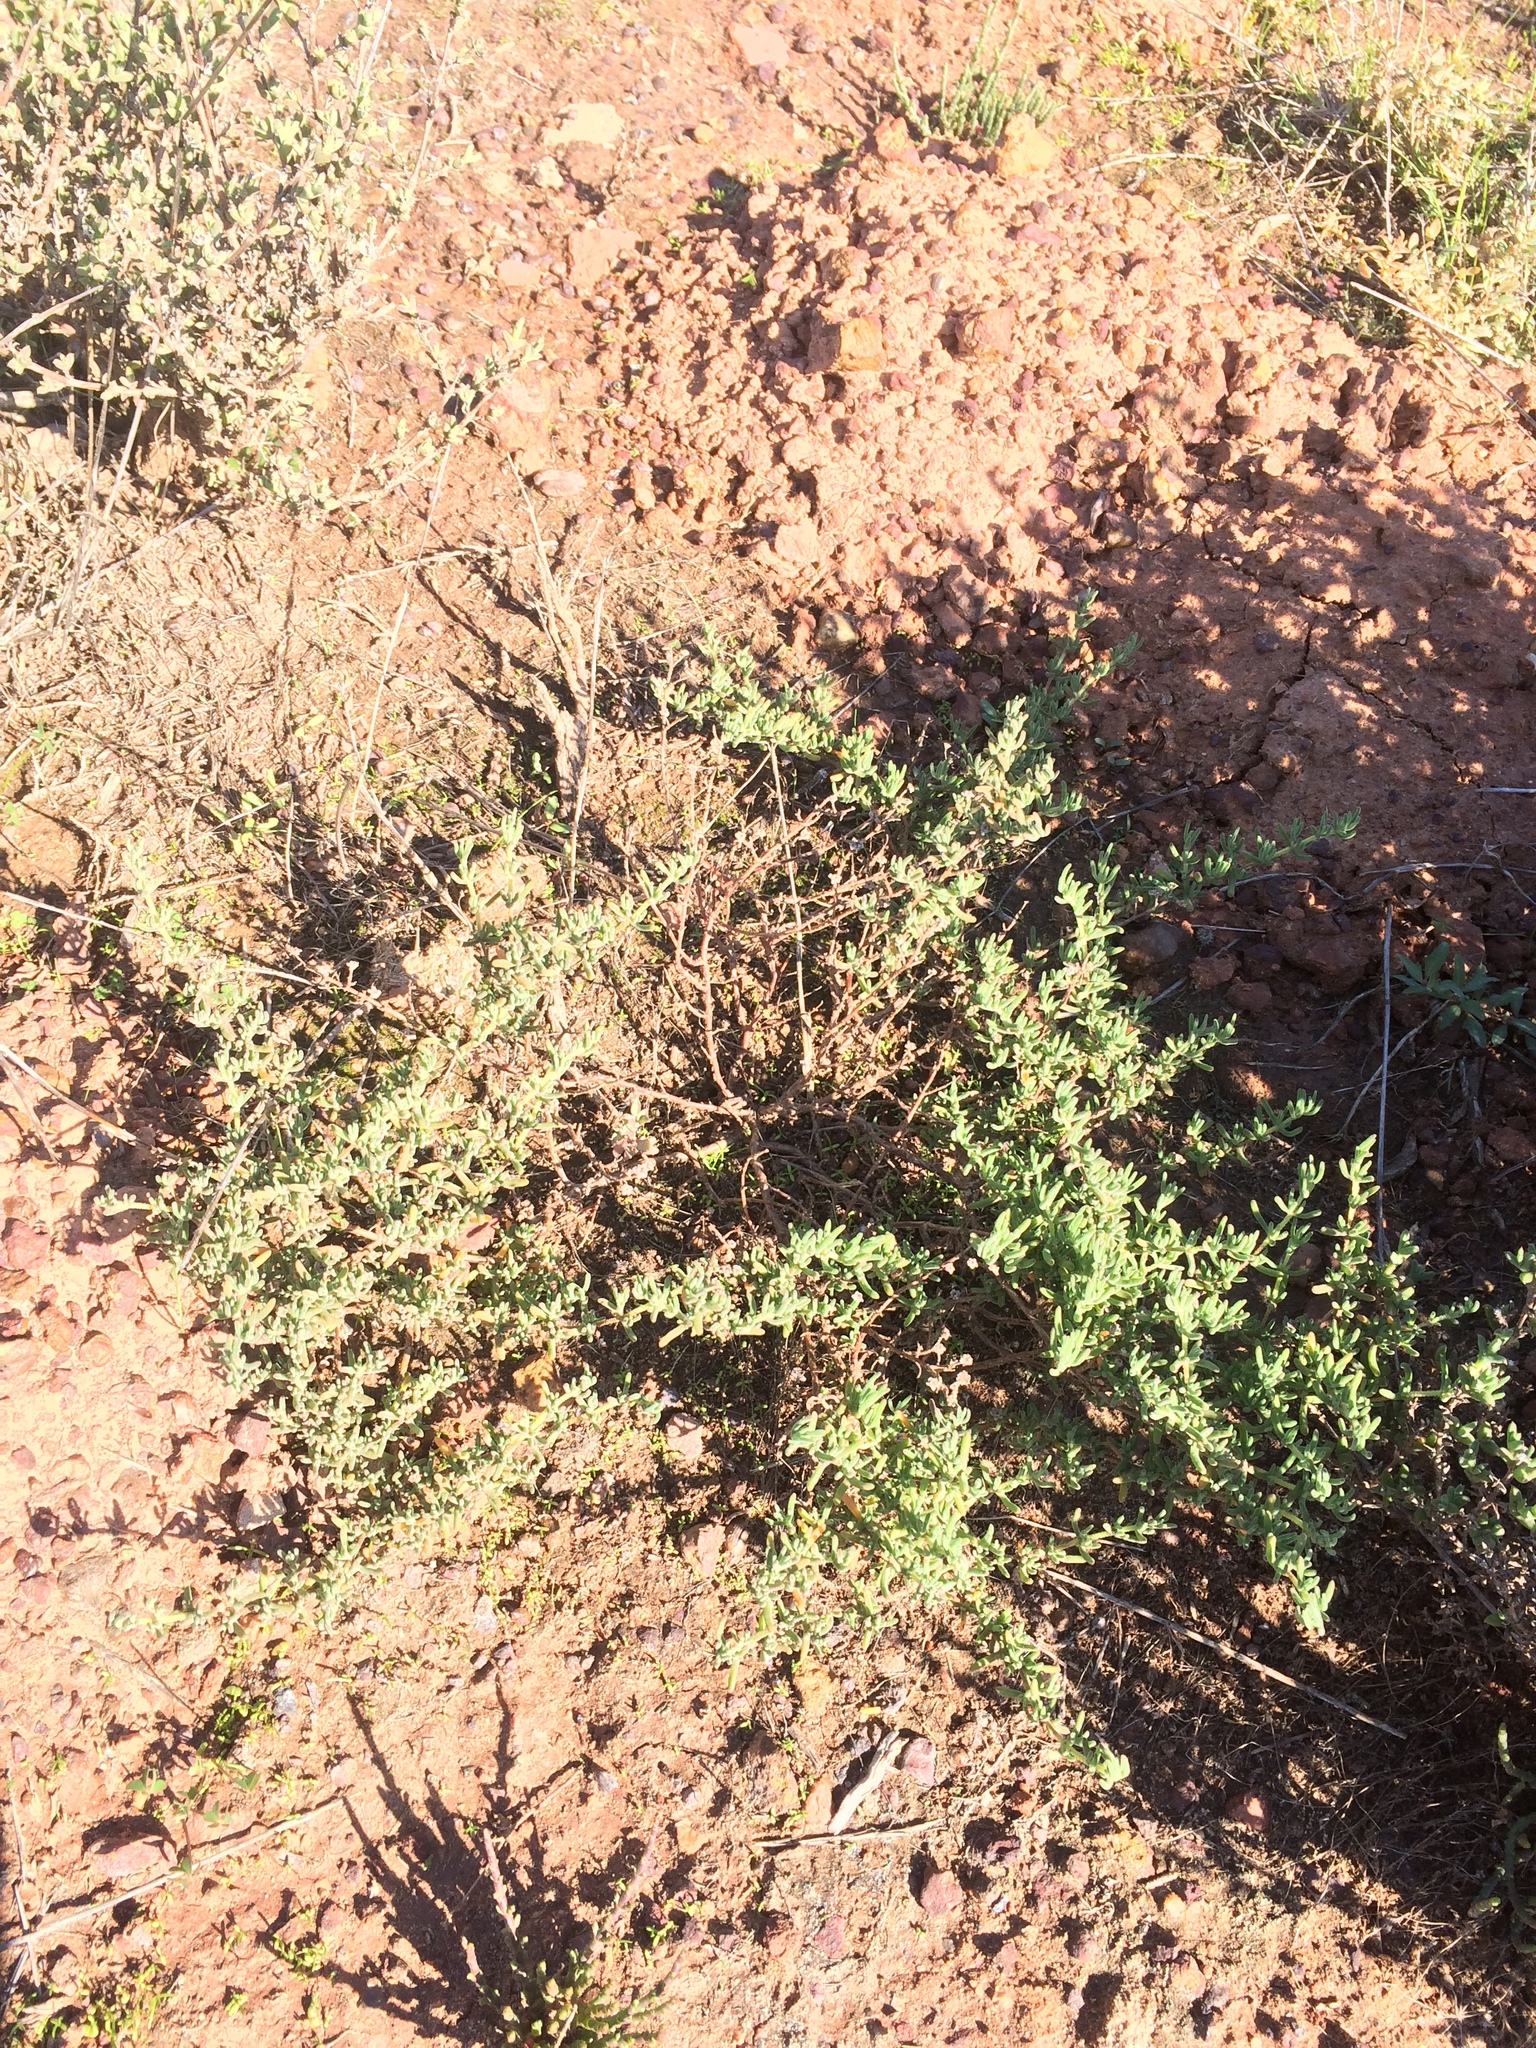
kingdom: Plantae
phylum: Tracheophyta
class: Magnoliopsida
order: Caryophyllales
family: Aizoaceae
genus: Drosanthemum
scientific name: Drosanthemum ambiguum
